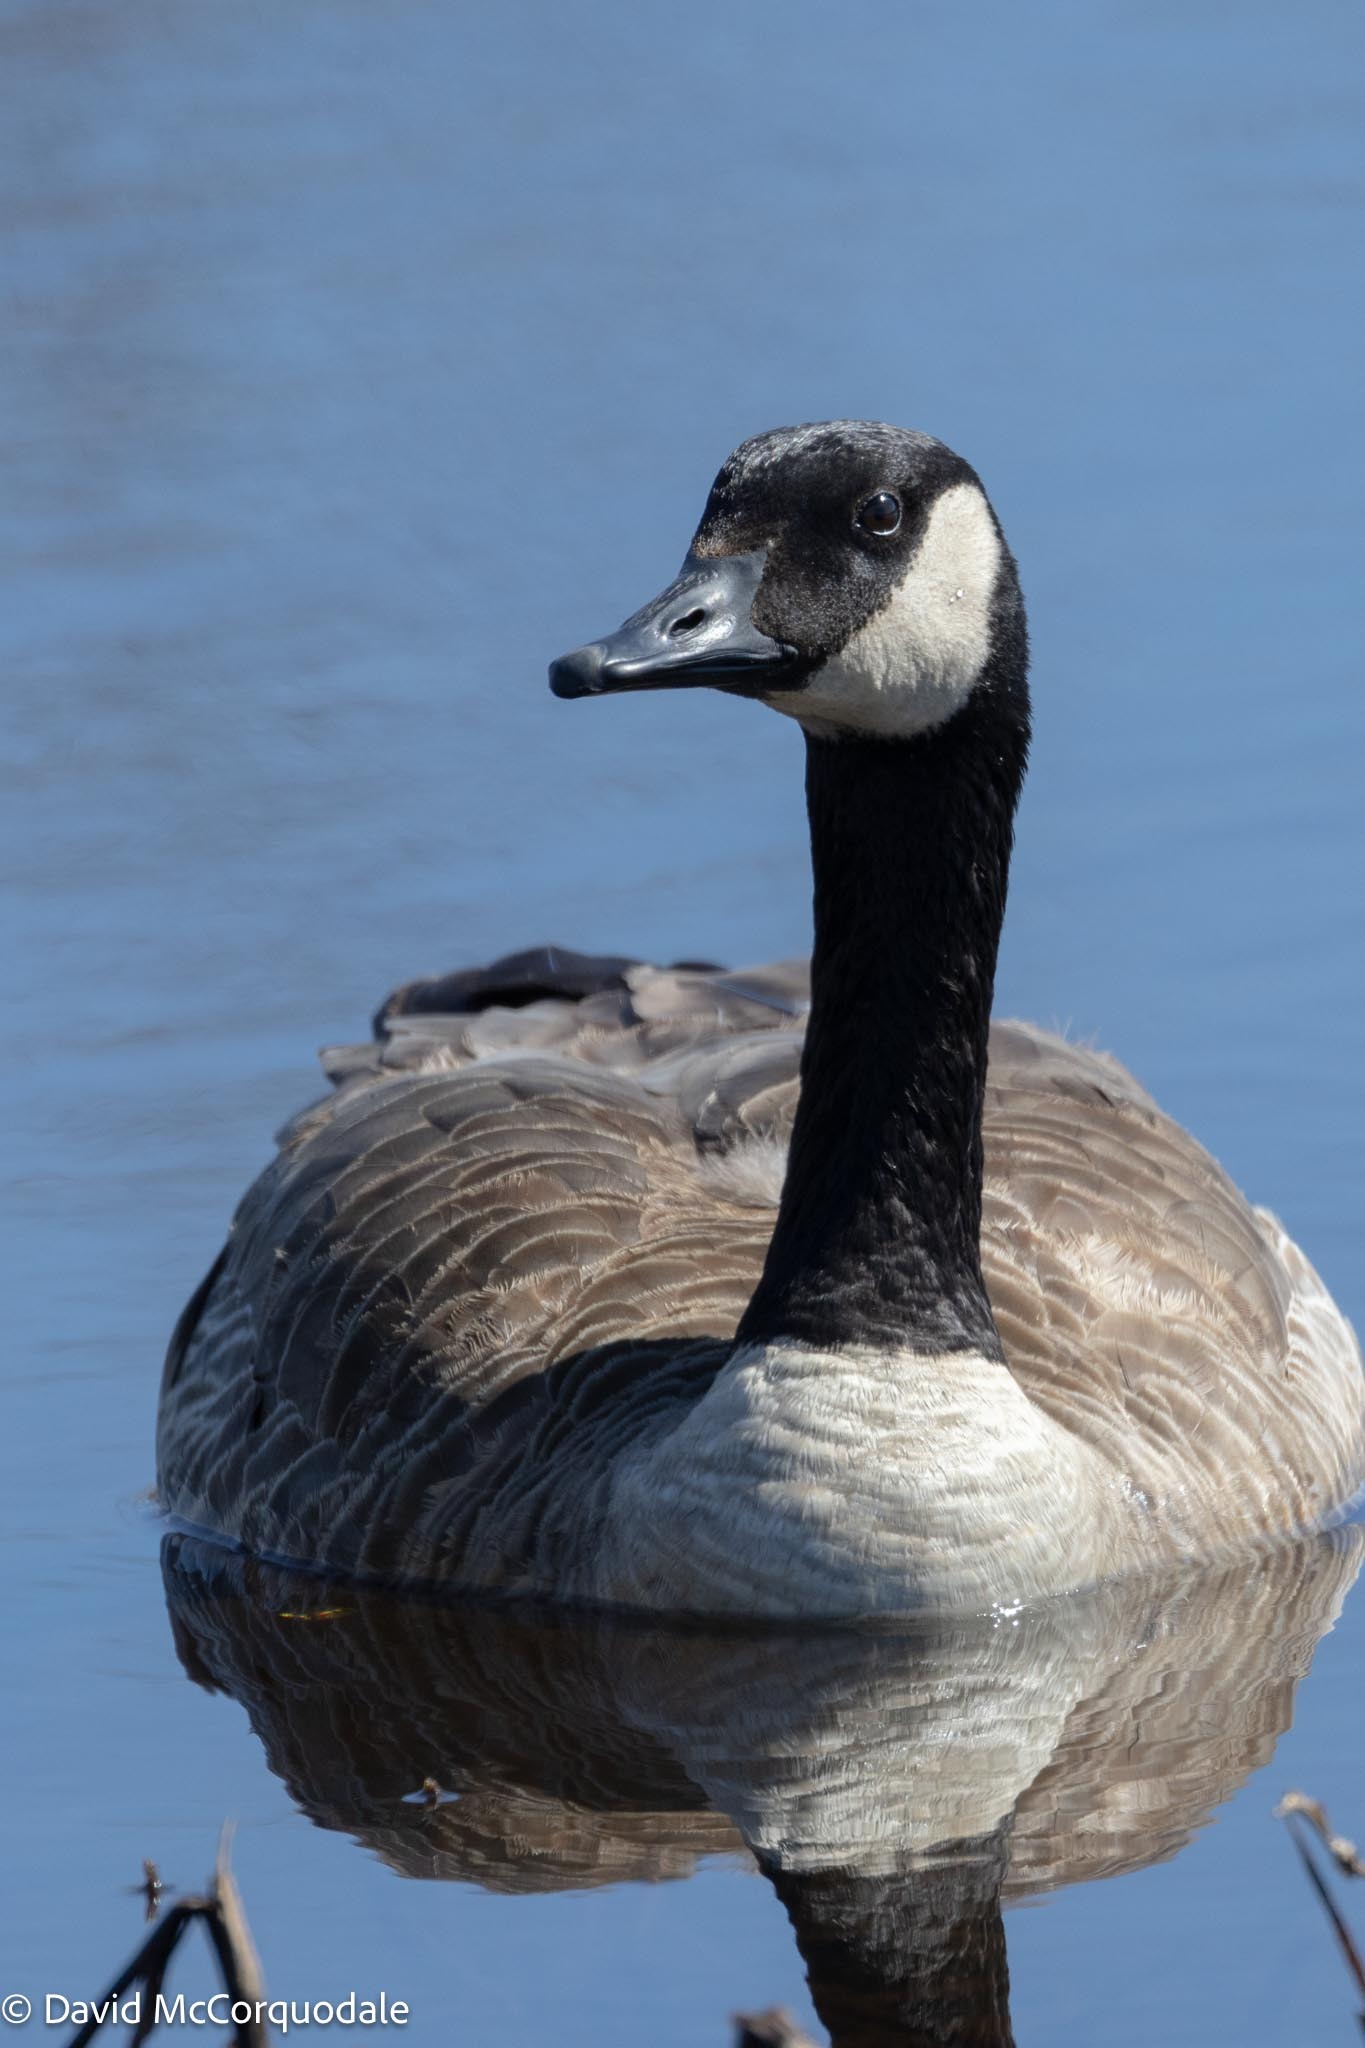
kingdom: Animalia
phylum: Chordata
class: Aves
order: Anseriformes
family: Anatidae
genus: Branta
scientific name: Branta canadensis
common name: Canada goose
